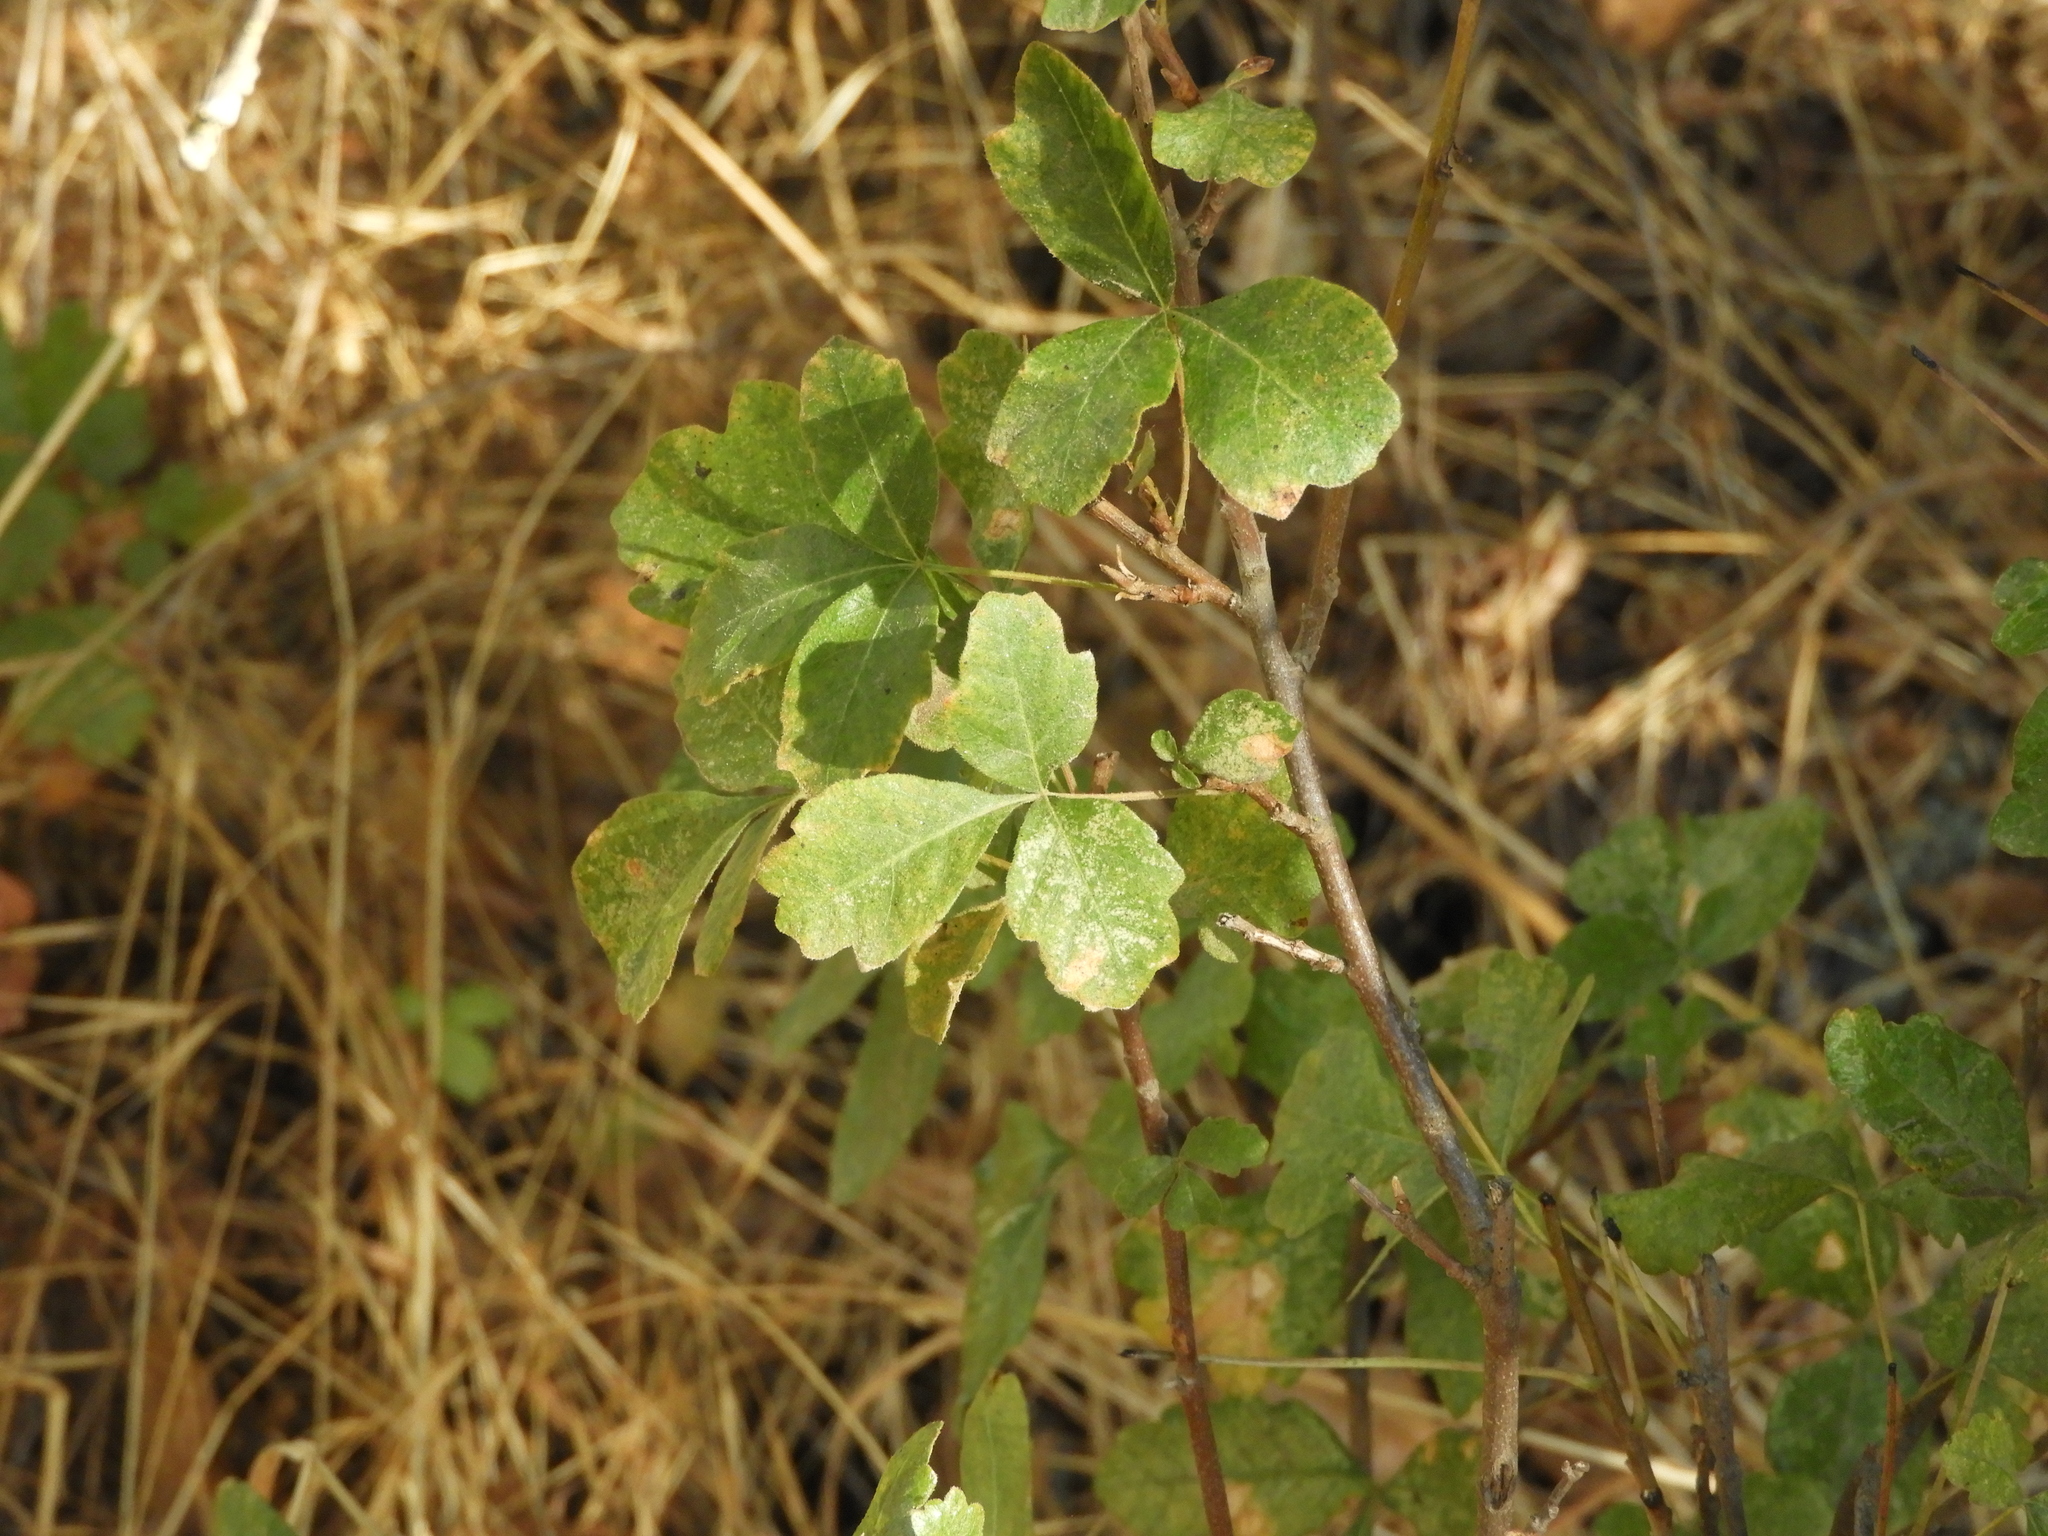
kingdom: Plantae
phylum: Tracheophyta
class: Magnoliopsida
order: Sapindales
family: Anacardiaceae
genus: Toxicodendron
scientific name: Toxicodendron diversilobum
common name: Pacific poison-oak
